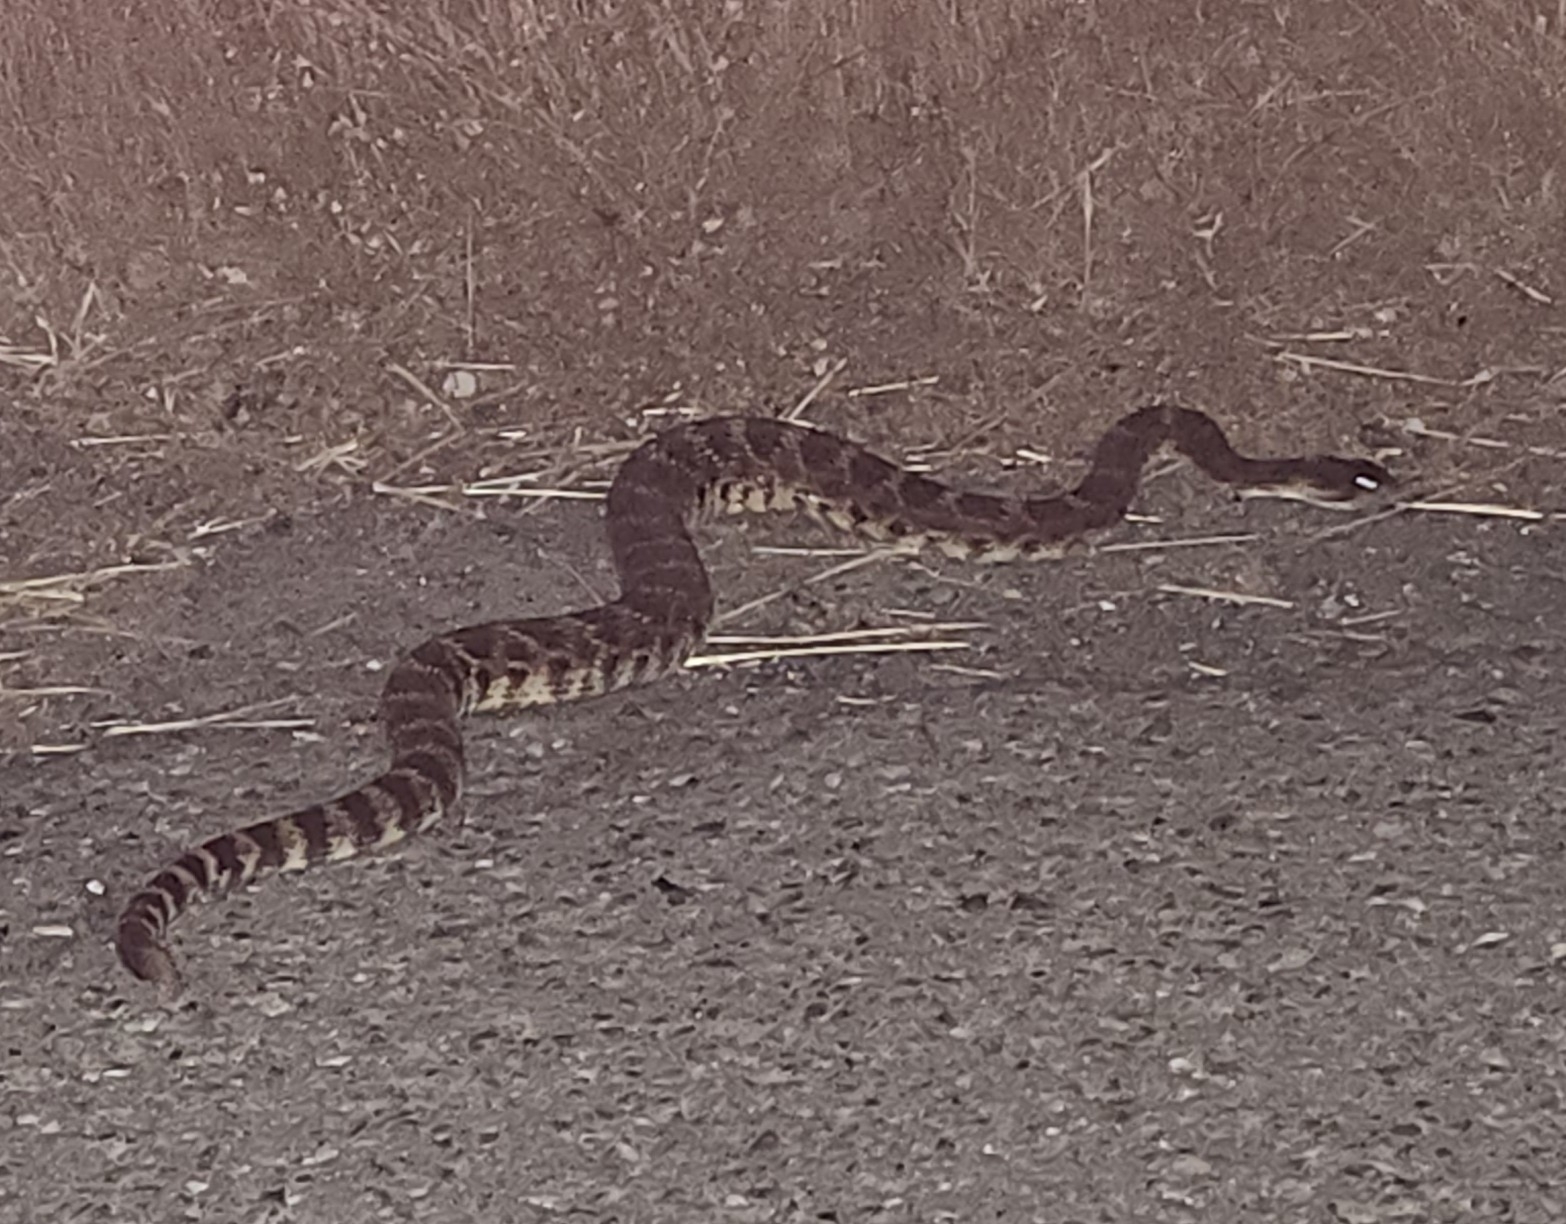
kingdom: Animalia
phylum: Chordata
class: Squamata
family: Viperidae
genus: Crotalus
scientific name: Crotalus oreganus
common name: Abyssus
